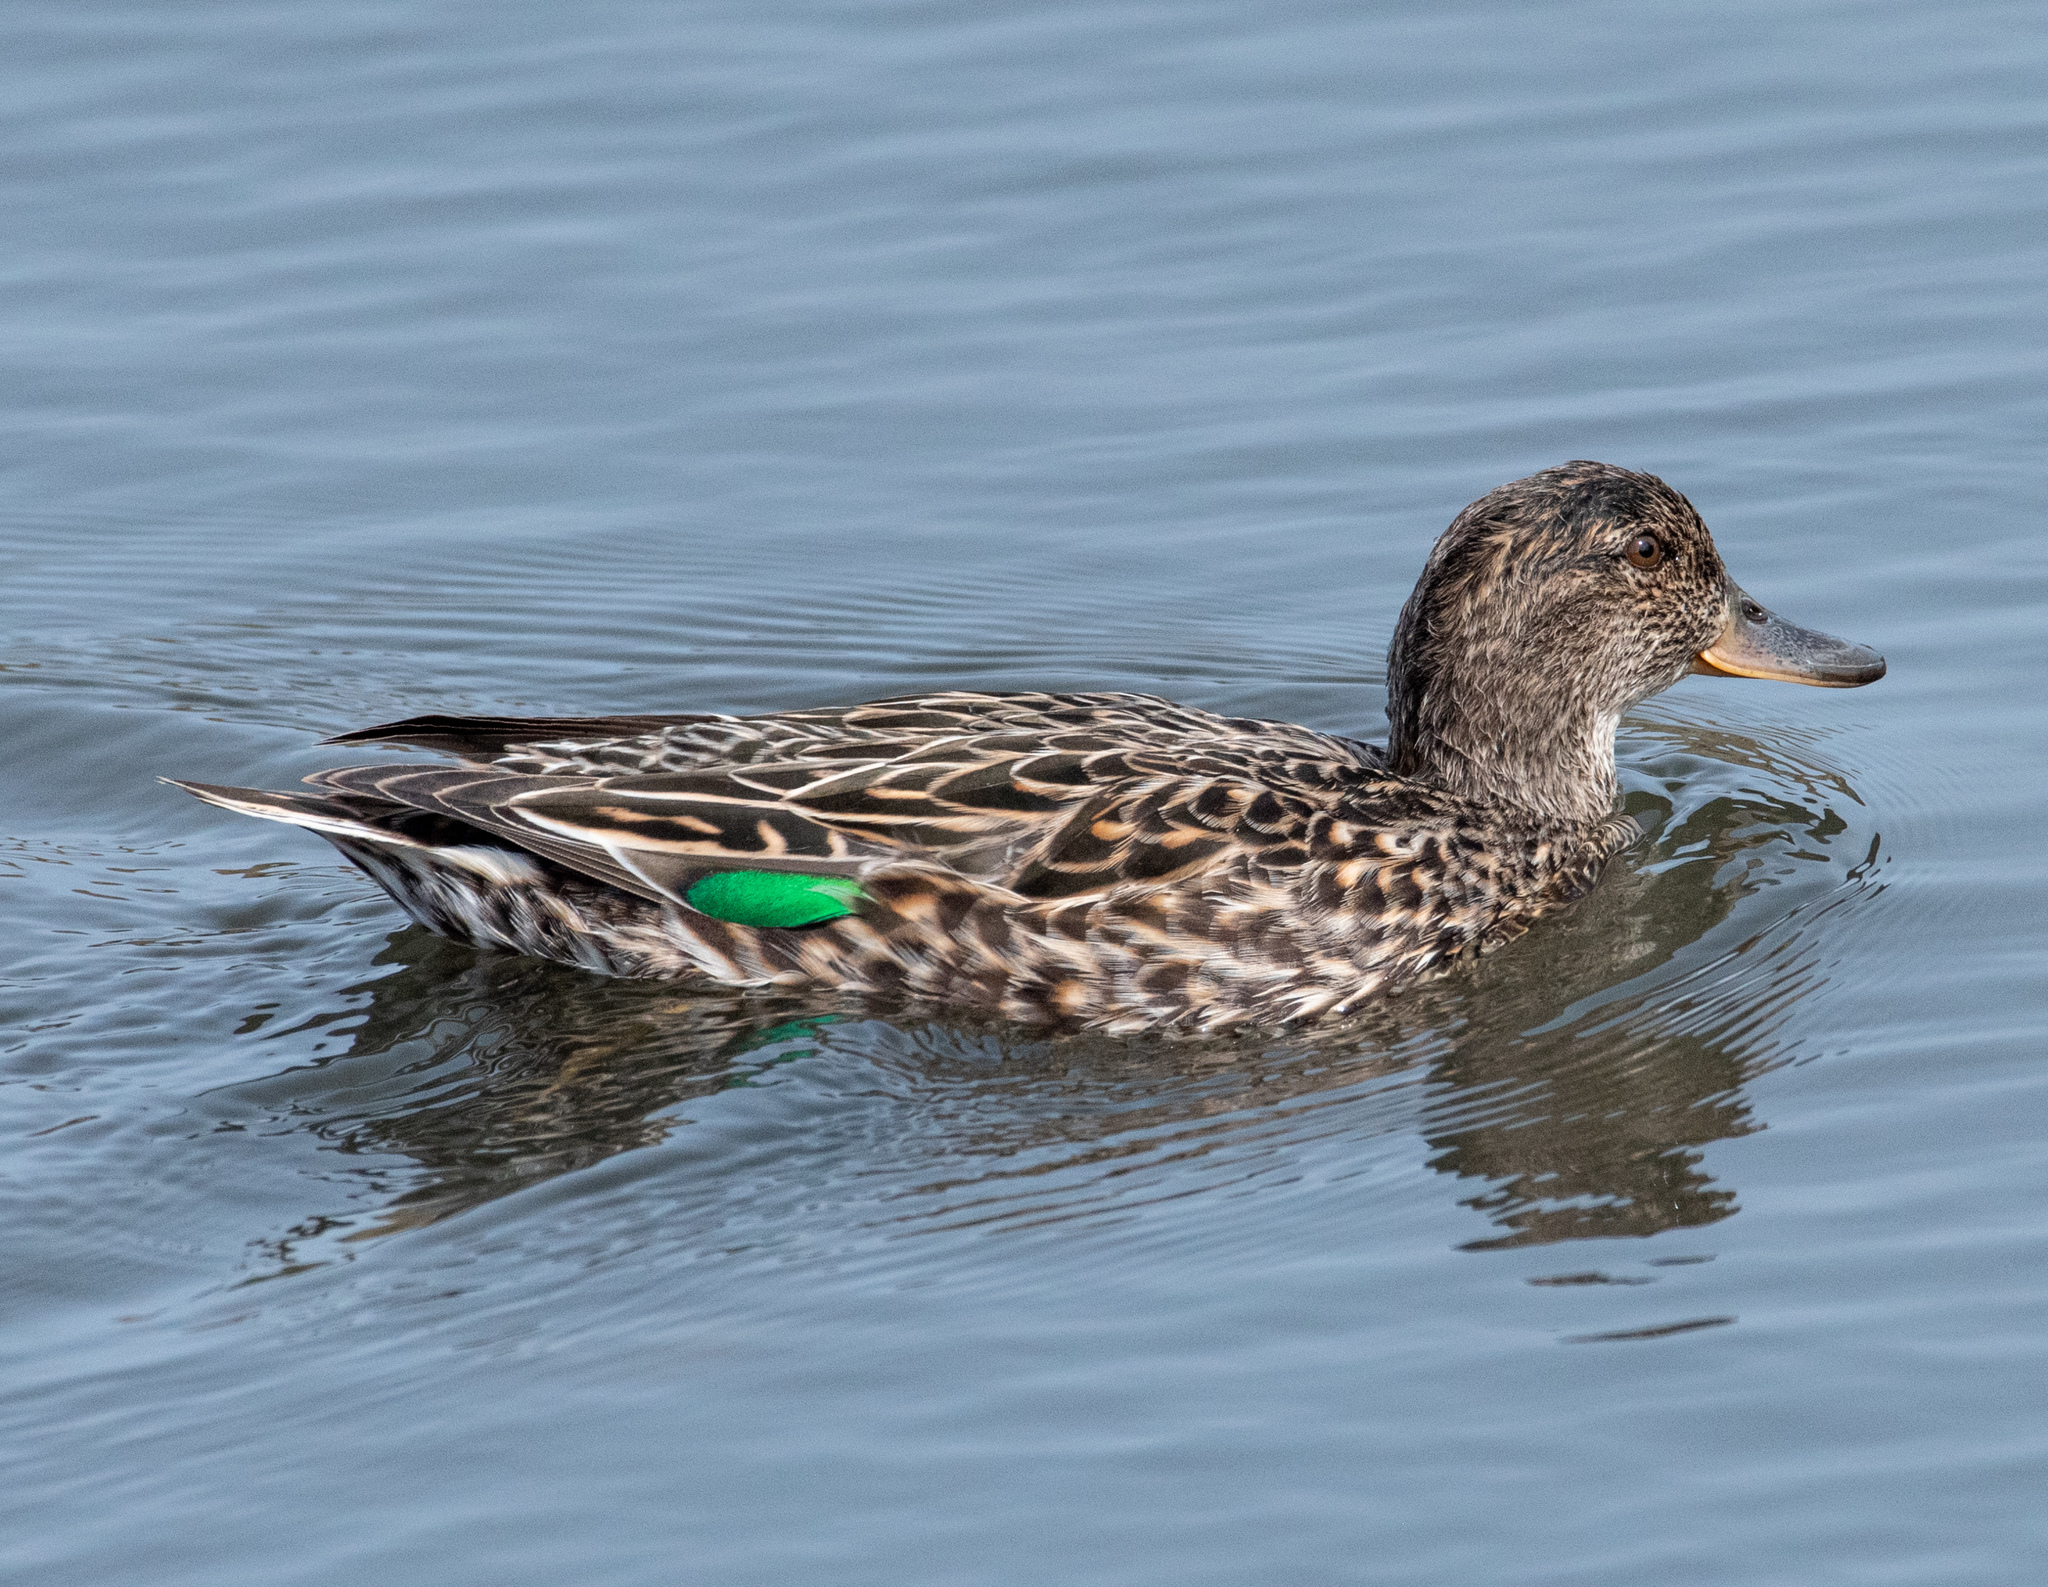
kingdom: Animalia
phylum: Chordata
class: Aves
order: Anseriformes
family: Anatidae
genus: Anas
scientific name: Anas crecca
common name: Eurasian teal
